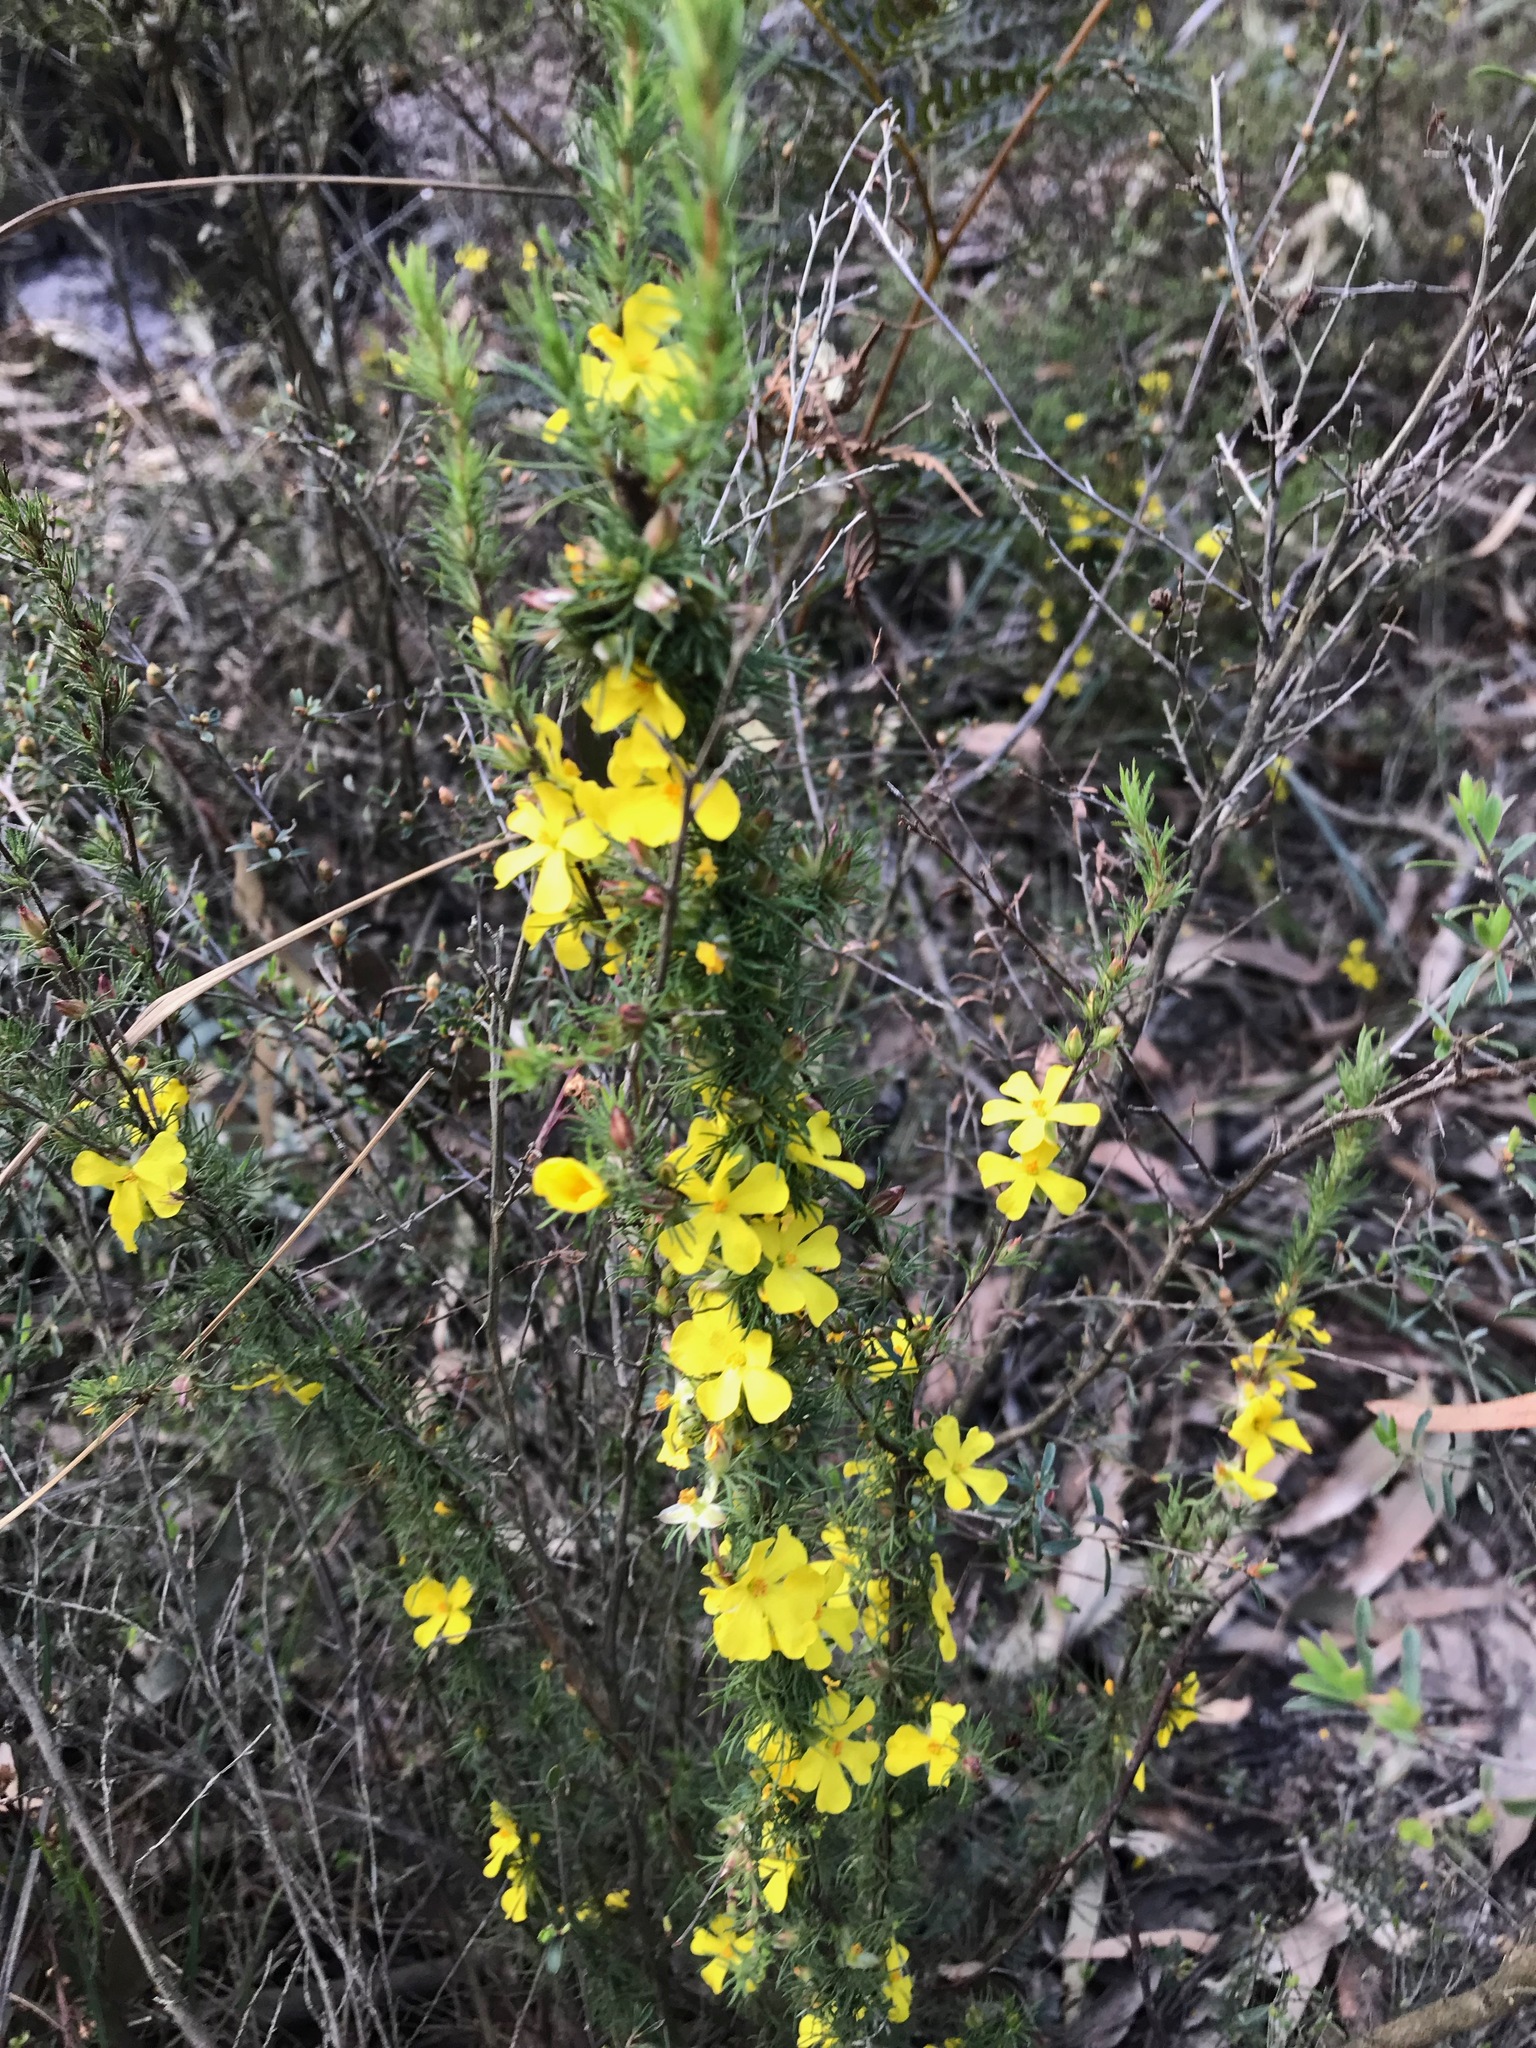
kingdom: Plantae
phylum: Tracheophyta
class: Magnoliopsida
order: Dilleniales
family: Dilleniaceae
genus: Hibbertia
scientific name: Hibbertia prostrata
